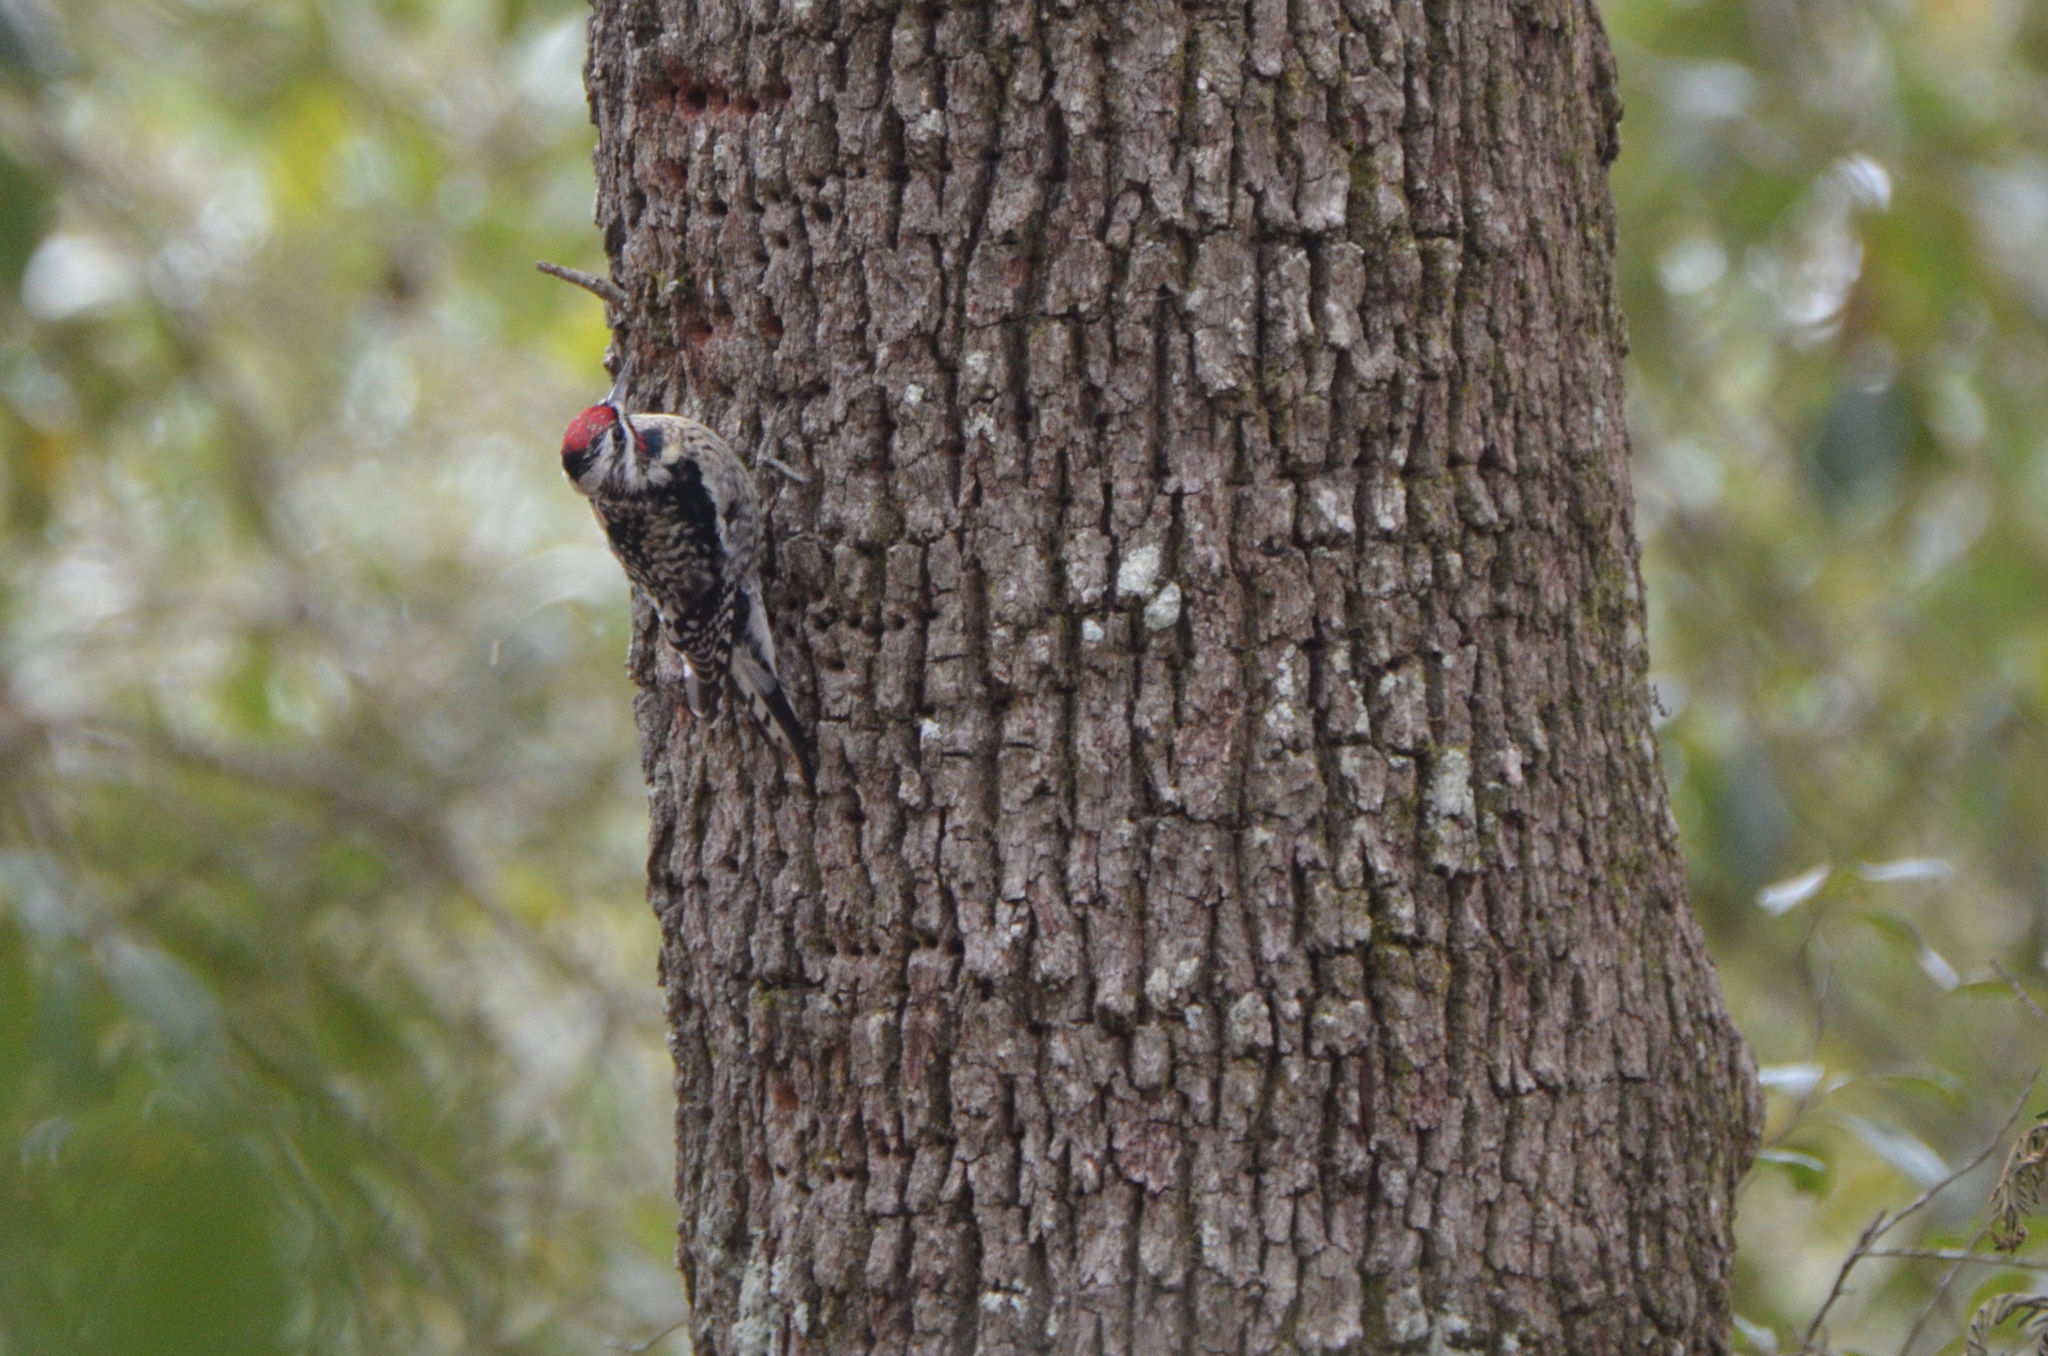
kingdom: Animalia
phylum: Chordata
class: Aves
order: Piciformes
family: Picidae
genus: Sphyrapicus
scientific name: Sphyrapicus varius
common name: Yellow-bellied sapsucker
